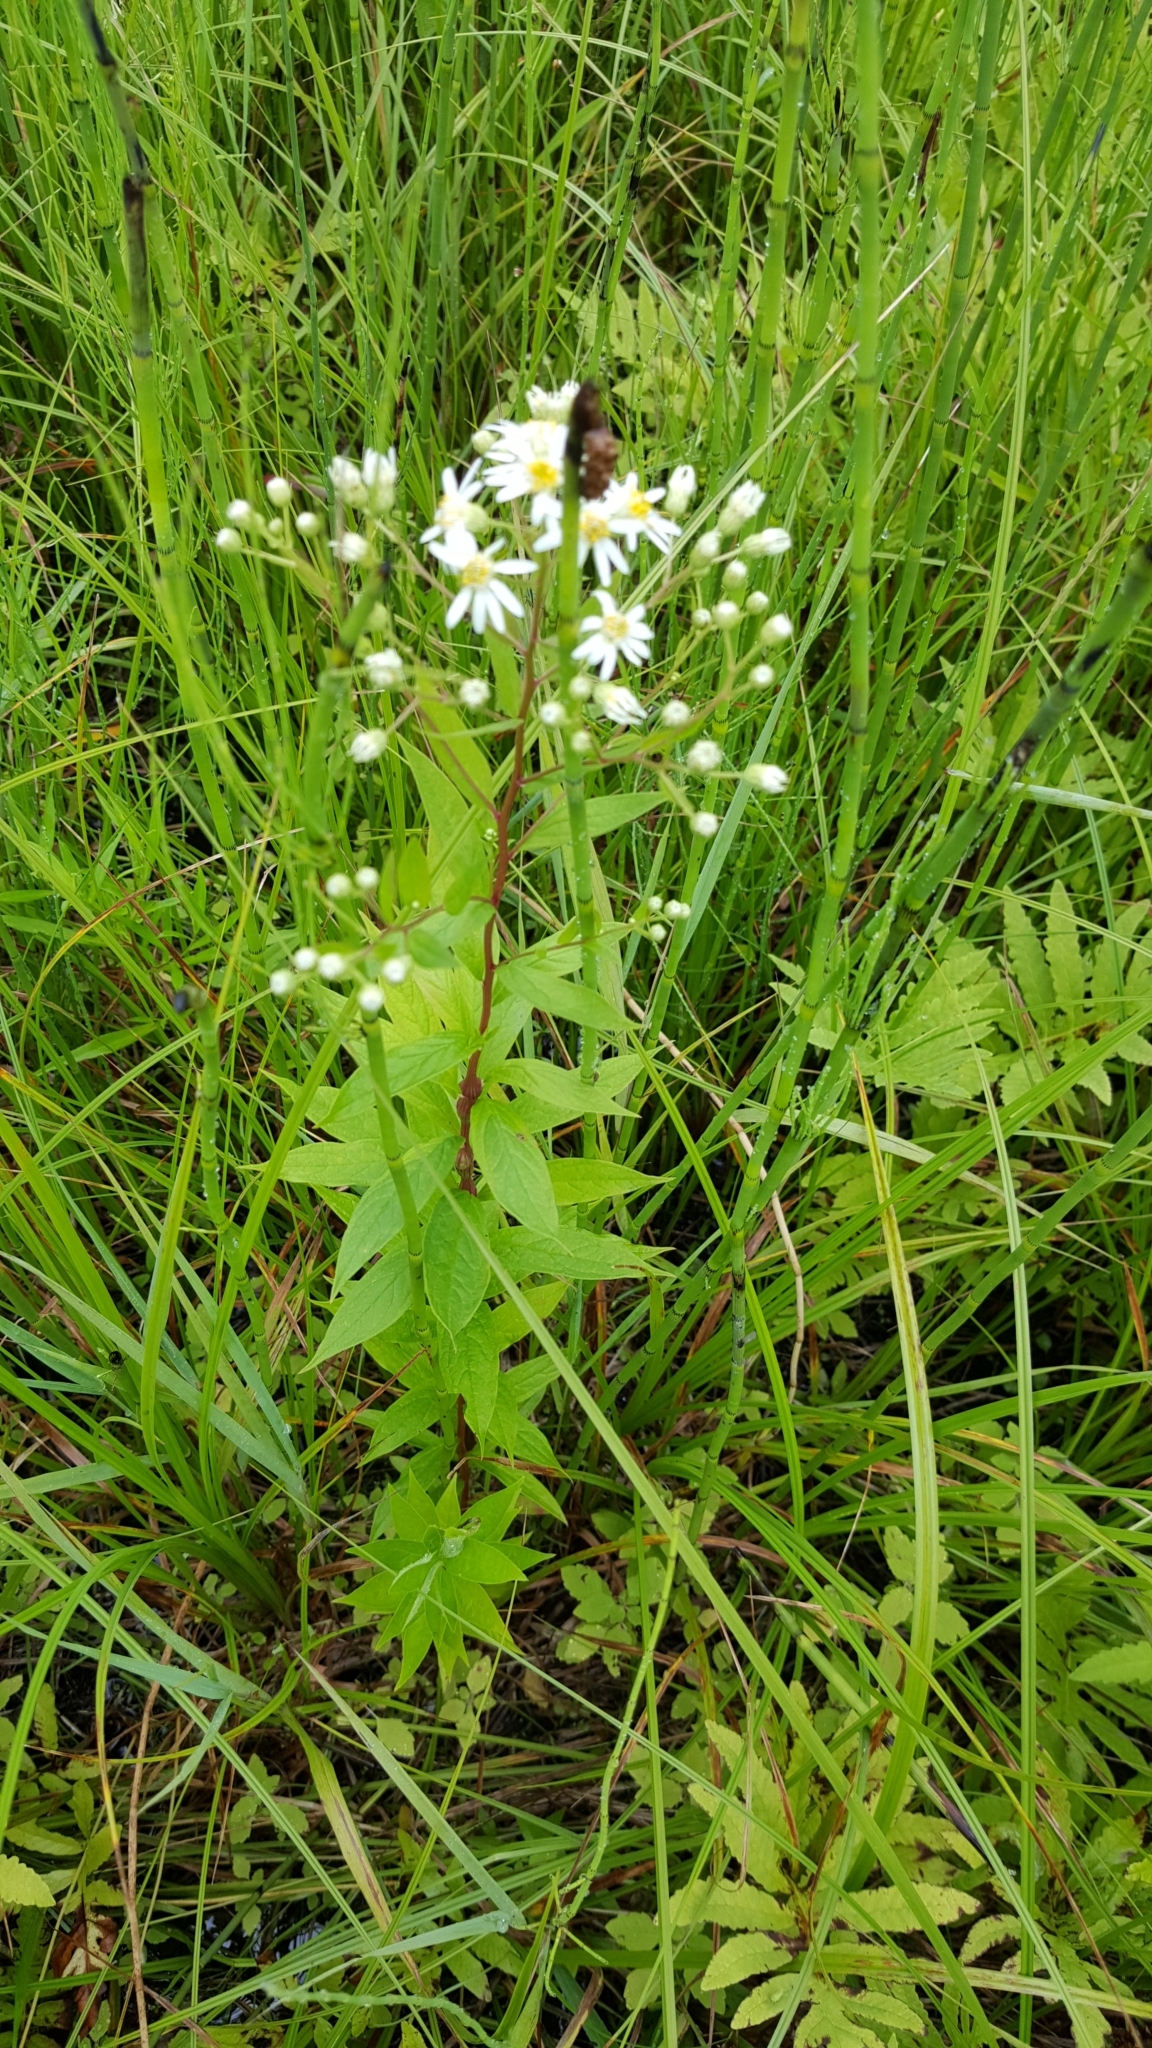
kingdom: Plantae
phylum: Tracheophyta
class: Magnoliopsida
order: Asterales
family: Asteraceae
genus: Doellingeria
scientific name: Doellingeria umbellata
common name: Flat-top white aster
